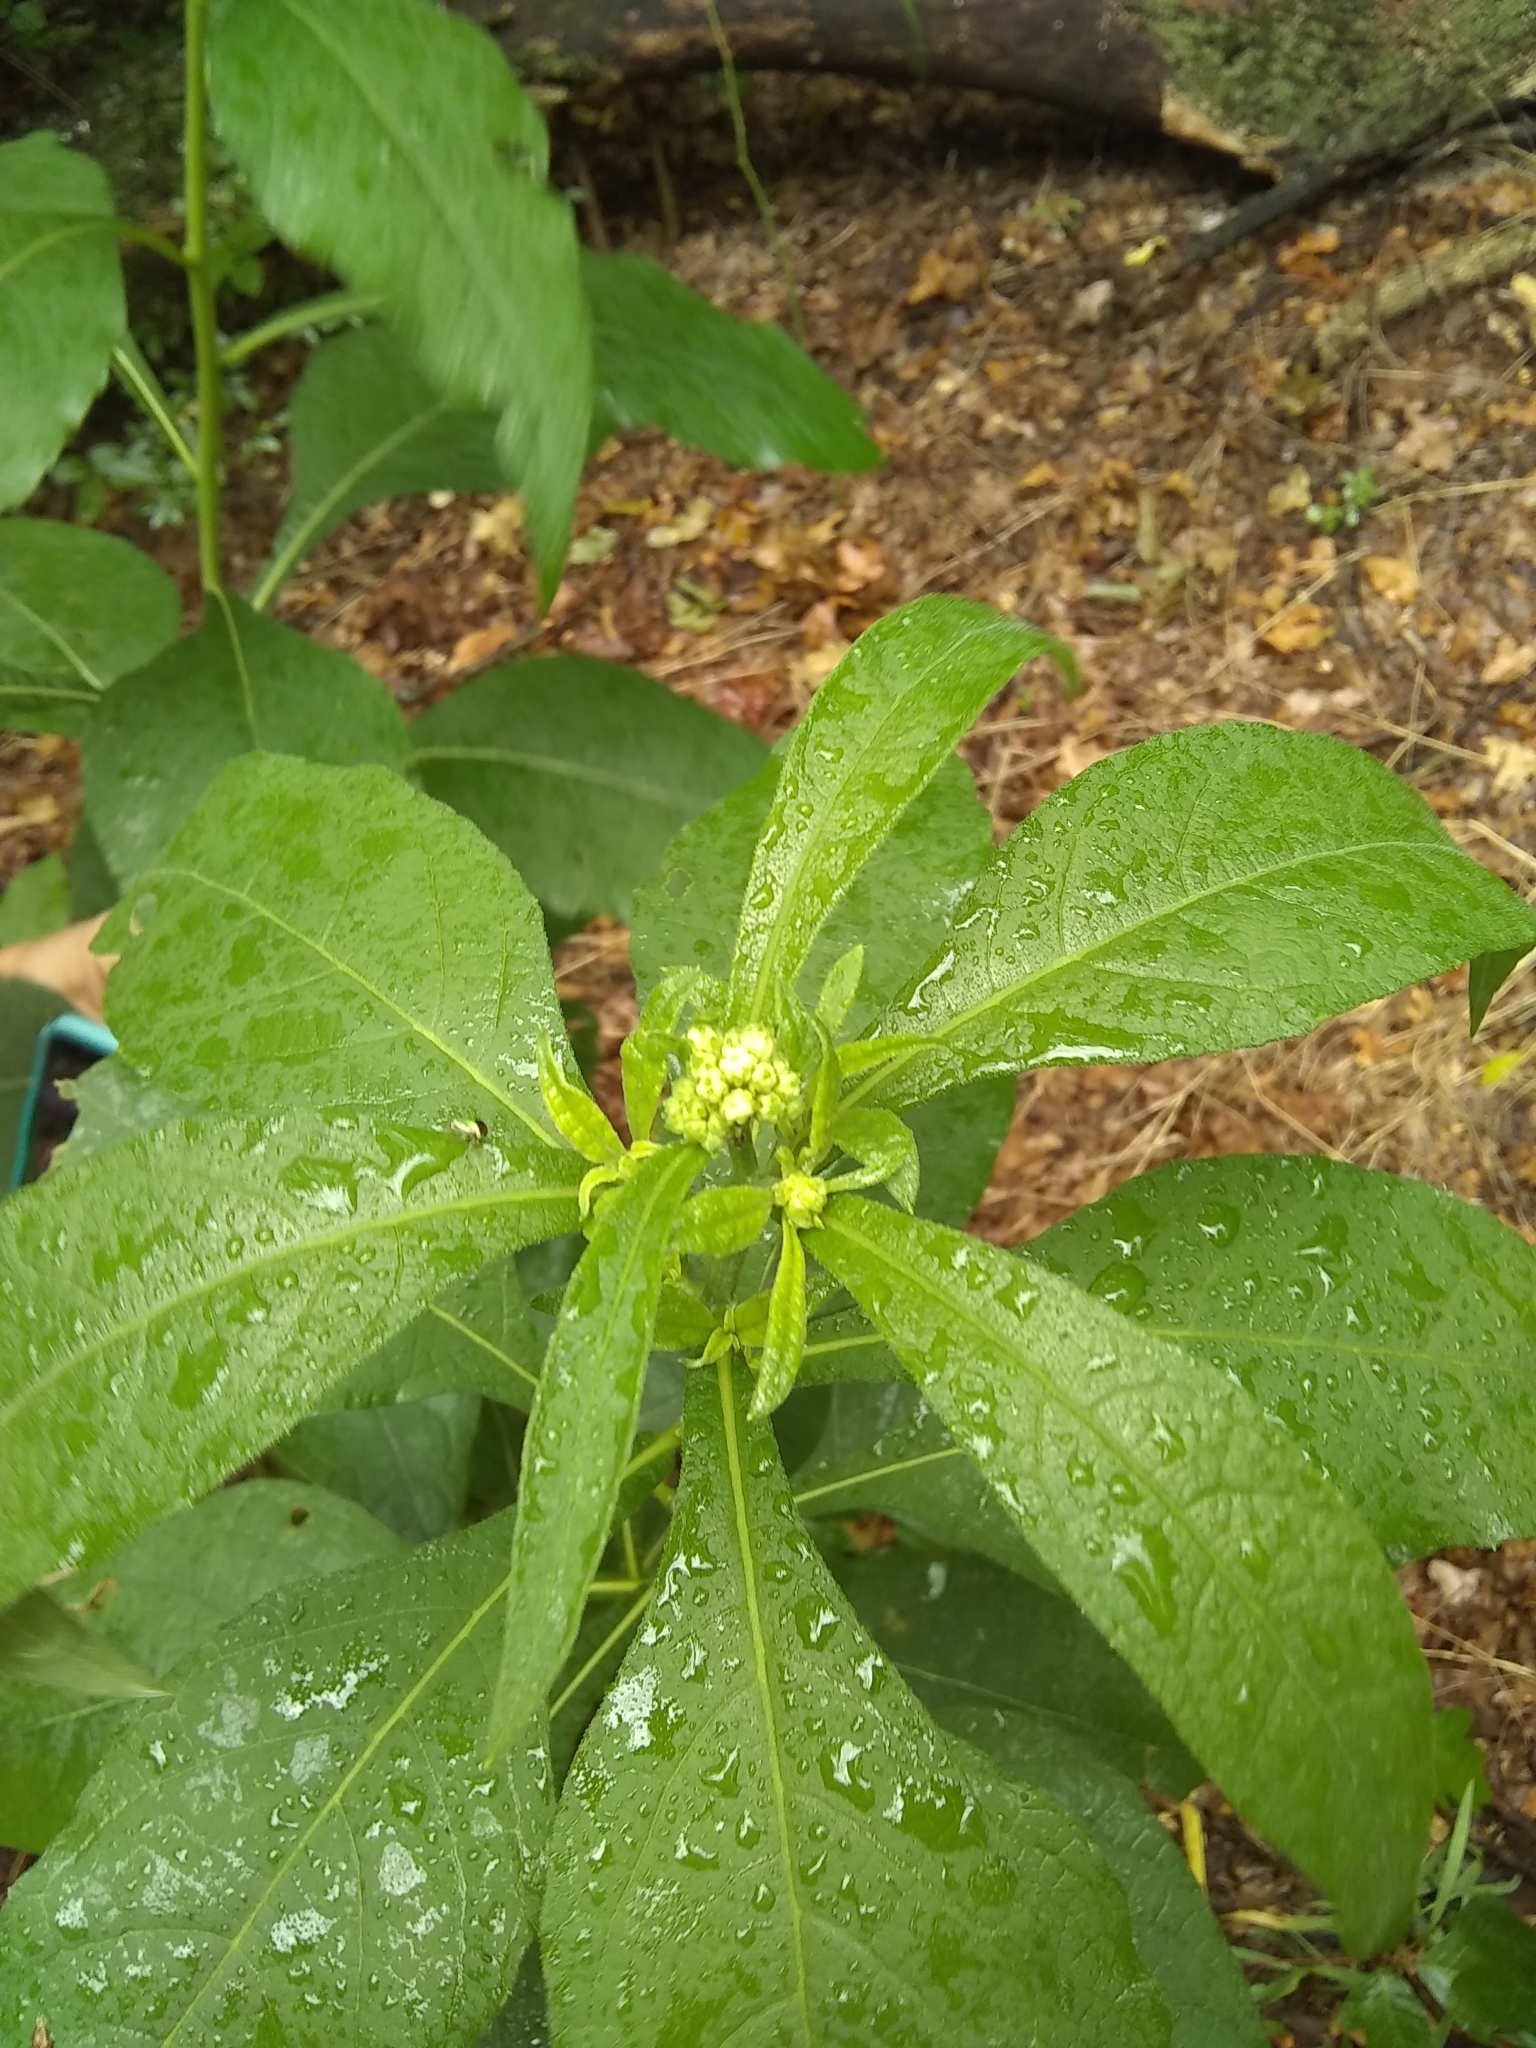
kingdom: Plantae
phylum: Tracheophyta
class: Magnoliopsida
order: Asterales
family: Asteraceae
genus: Verbesina
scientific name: Verbesina virginica
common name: Frostweed
